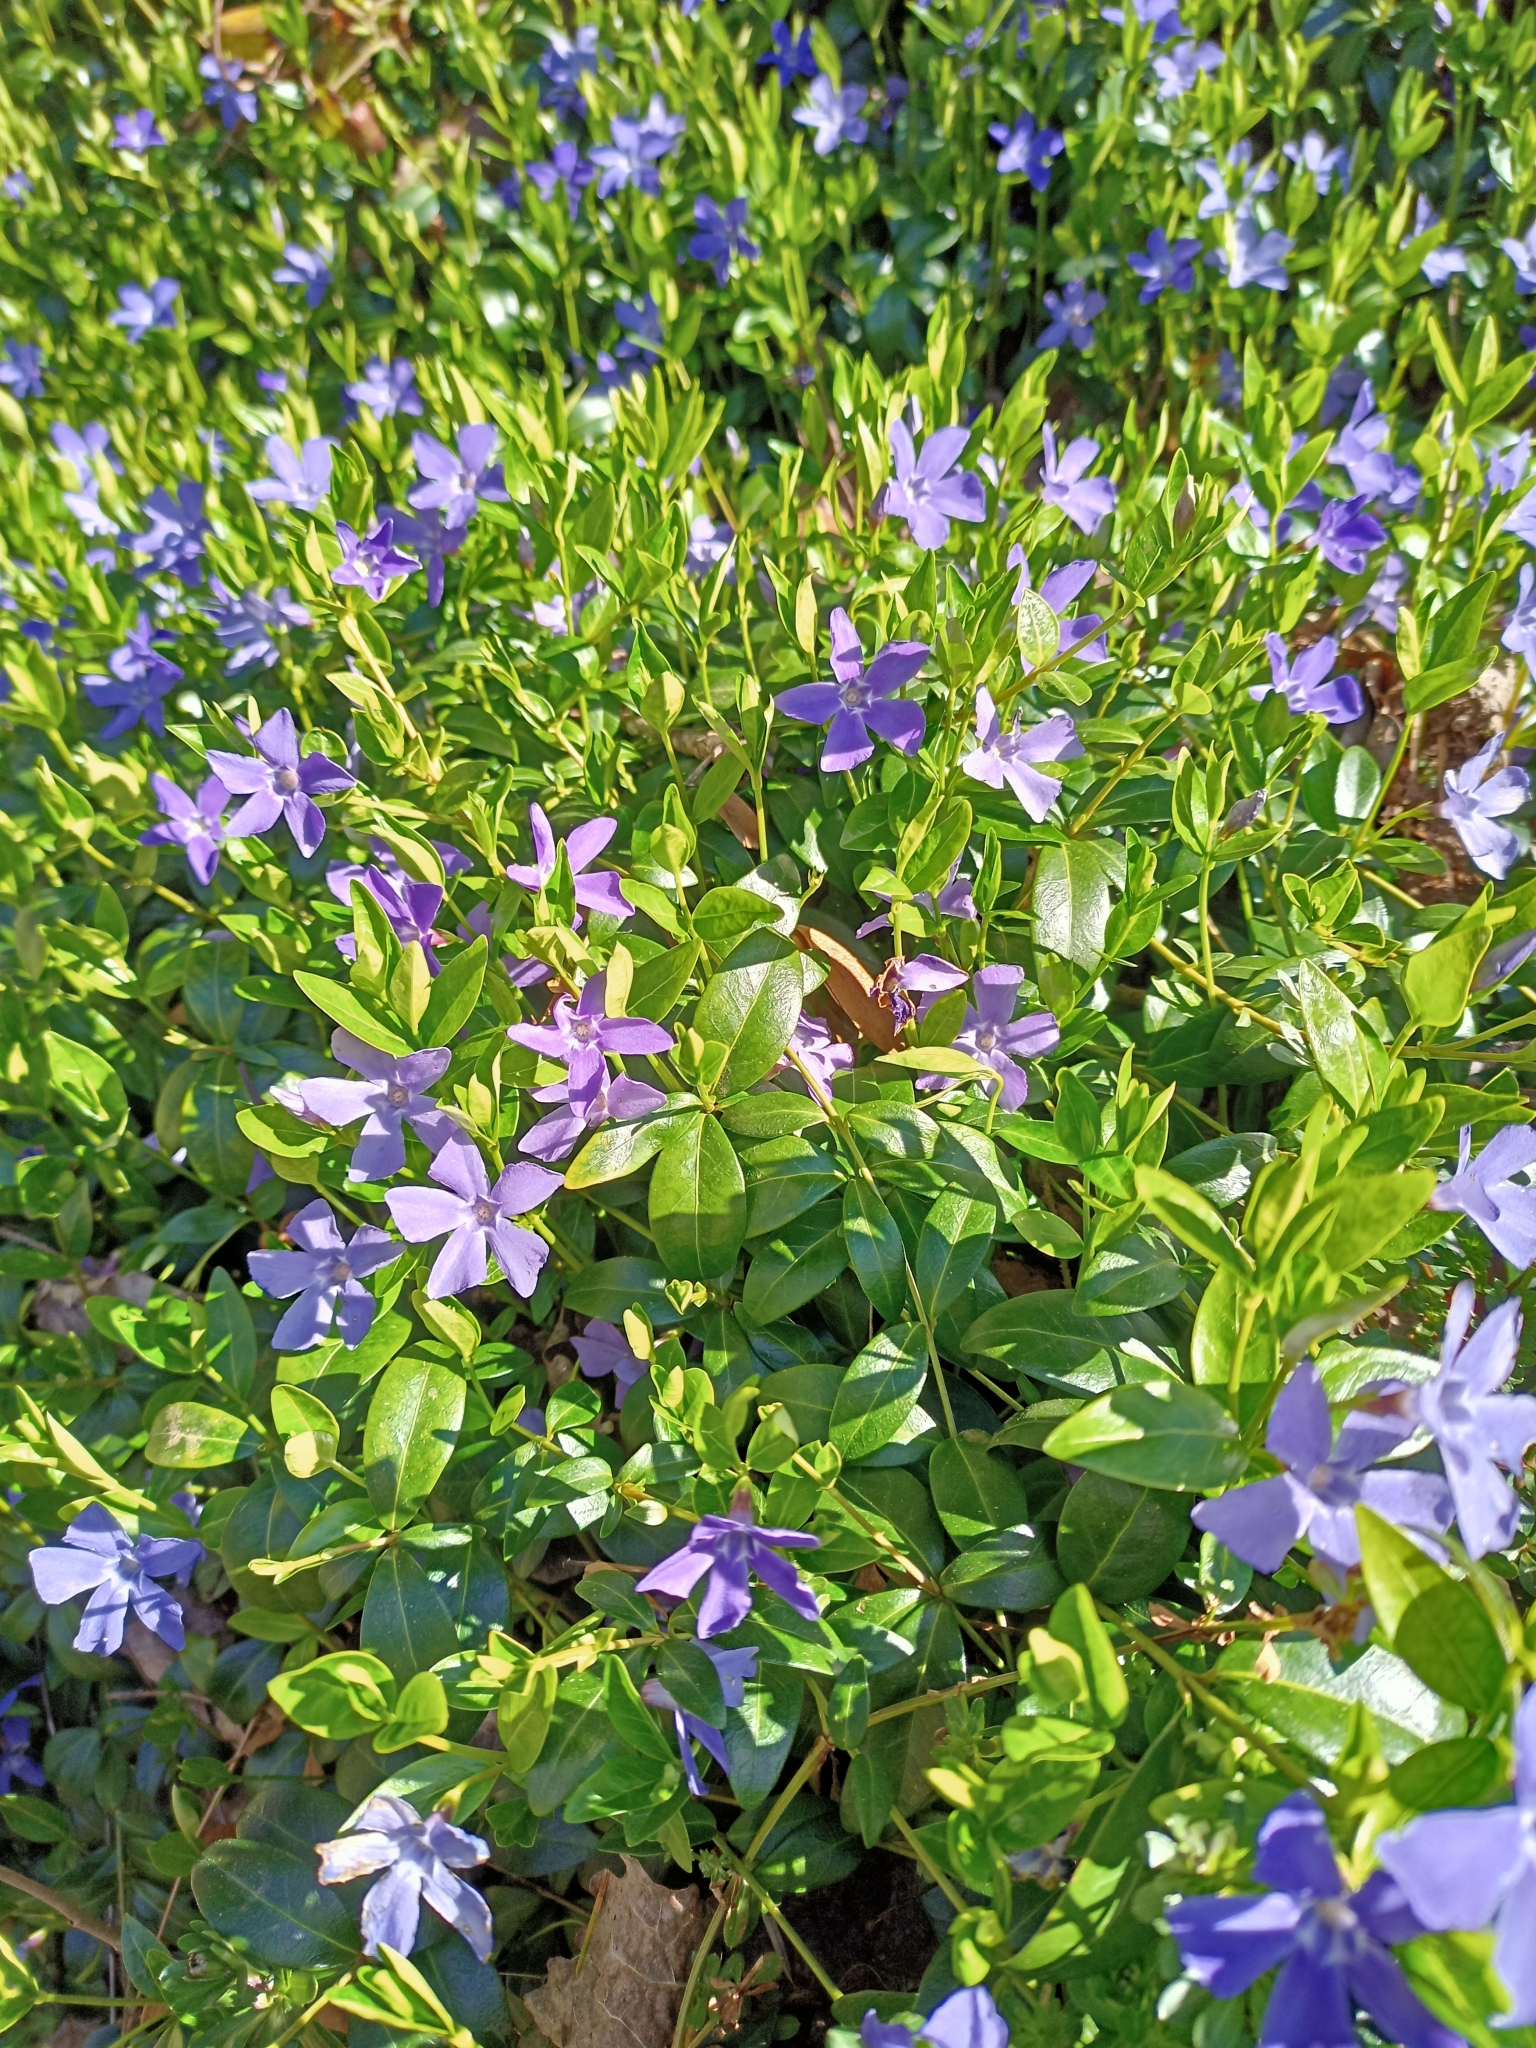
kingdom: Plantae
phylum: Tracheophyta
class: Magnoliopsida
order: Gentianales
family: Apocynaceae
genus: Vinca
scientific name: Vinca minor
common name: Lesser periwinkle
